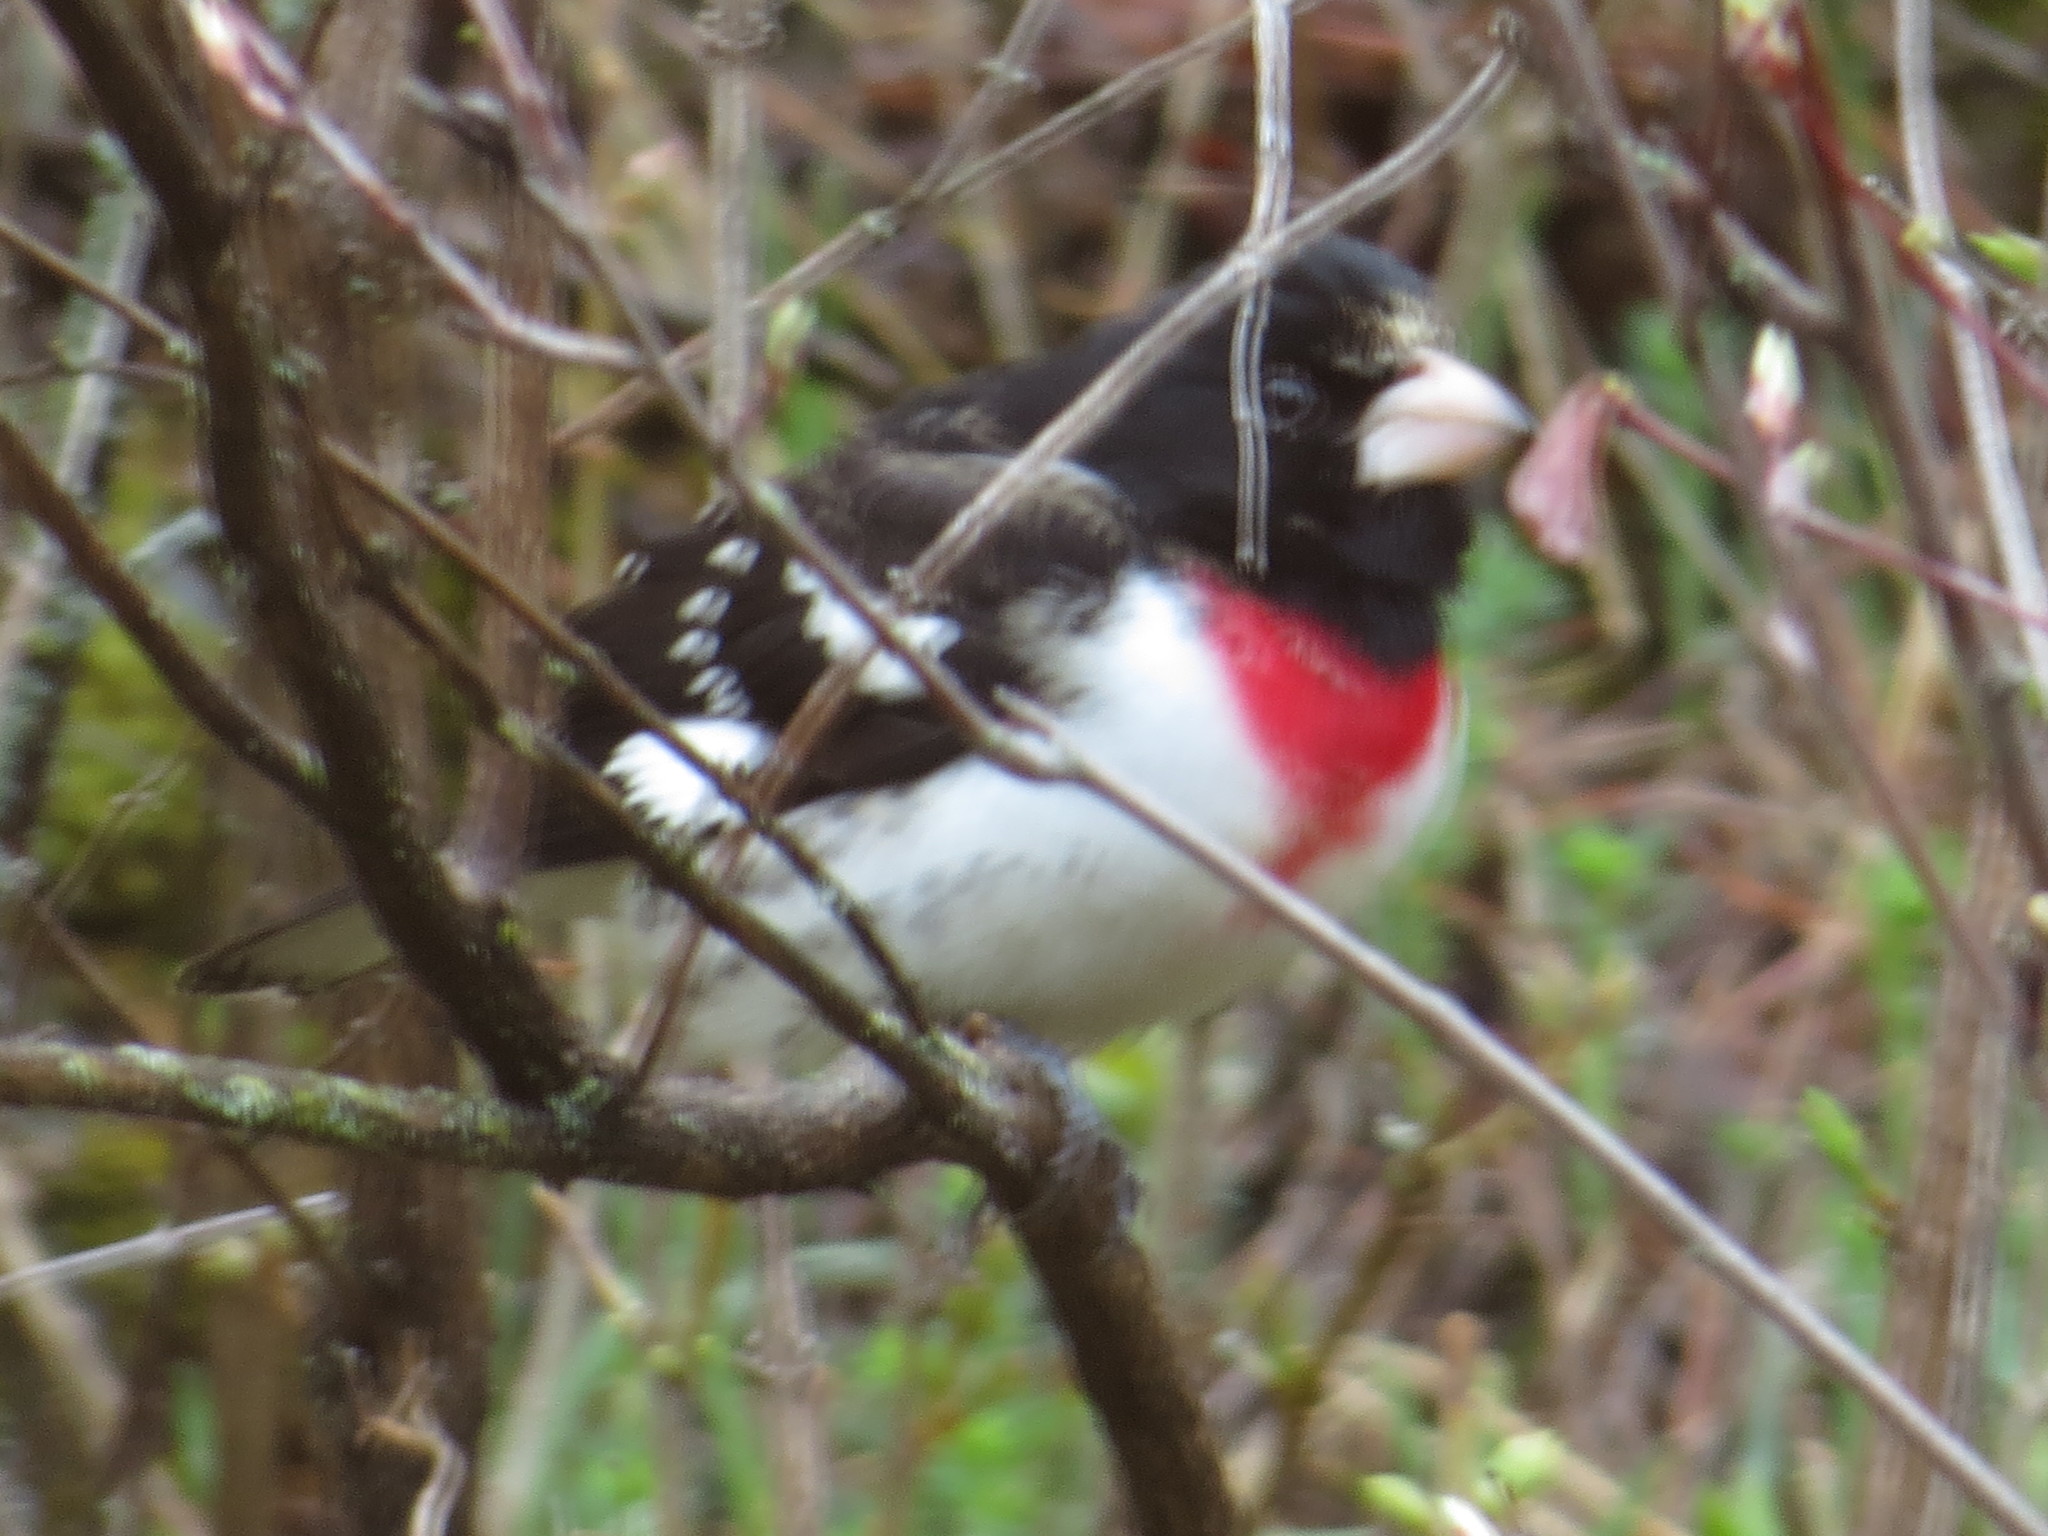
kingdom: Animalia
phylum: Chordata
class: Aves
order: Passeriformes
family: Cardinalidae
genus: Pheucticus
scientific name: Pheucticus ludovicianus
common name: Rose-breasted grosbeak
